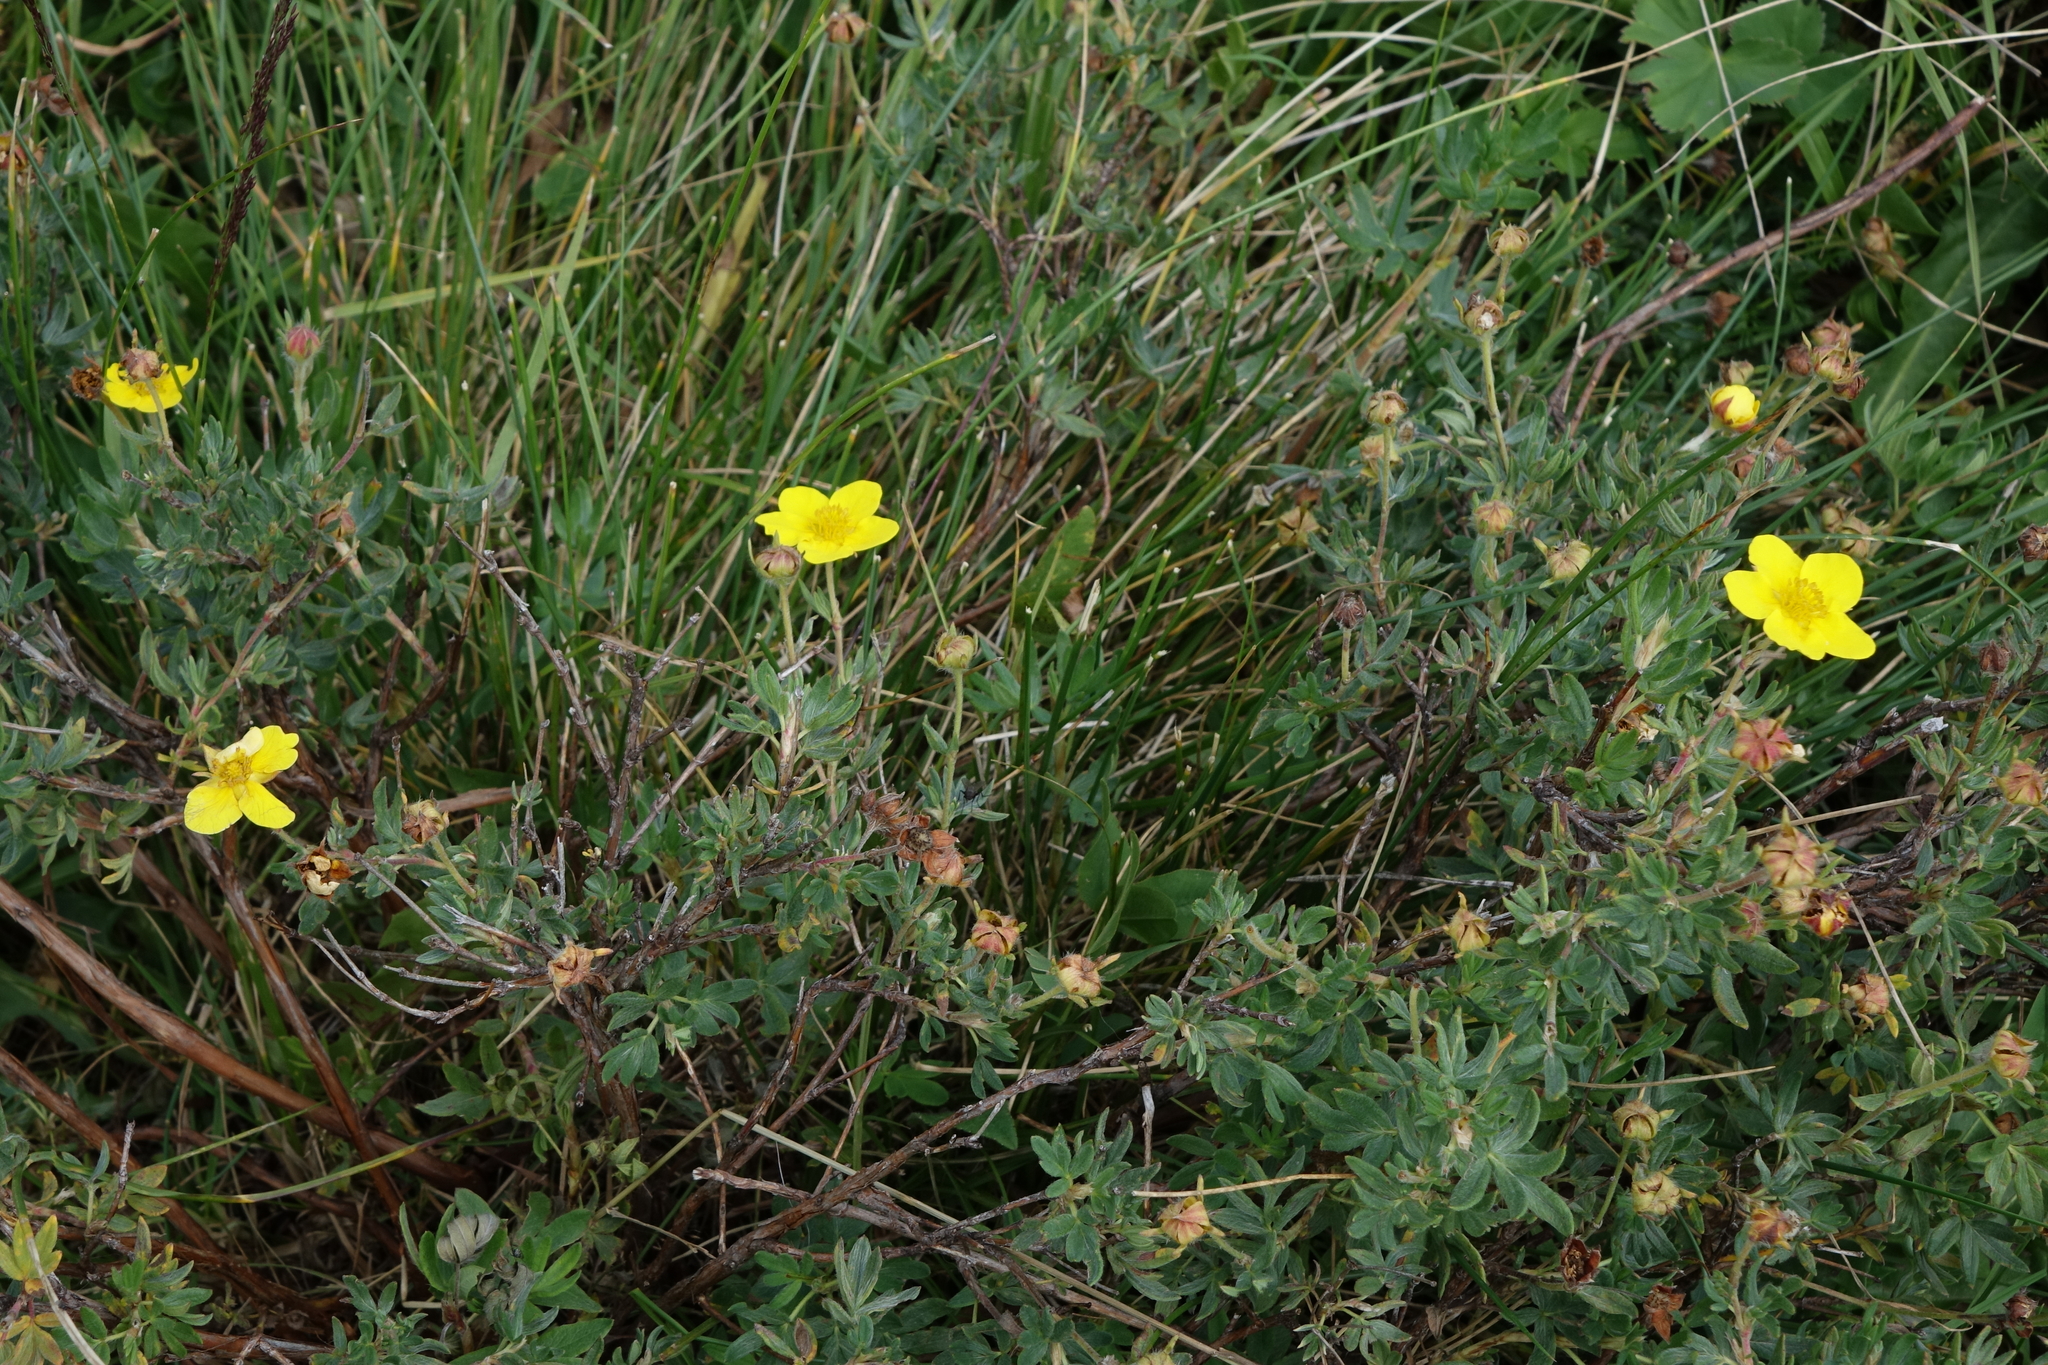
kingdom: Plantae
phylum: Tracheophyta
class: Magnoliopsida
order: Rosales
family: Rosaceae
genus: Dasiphora
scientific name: Dasiphora fruticosa
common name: Shrubby cinquefoil
